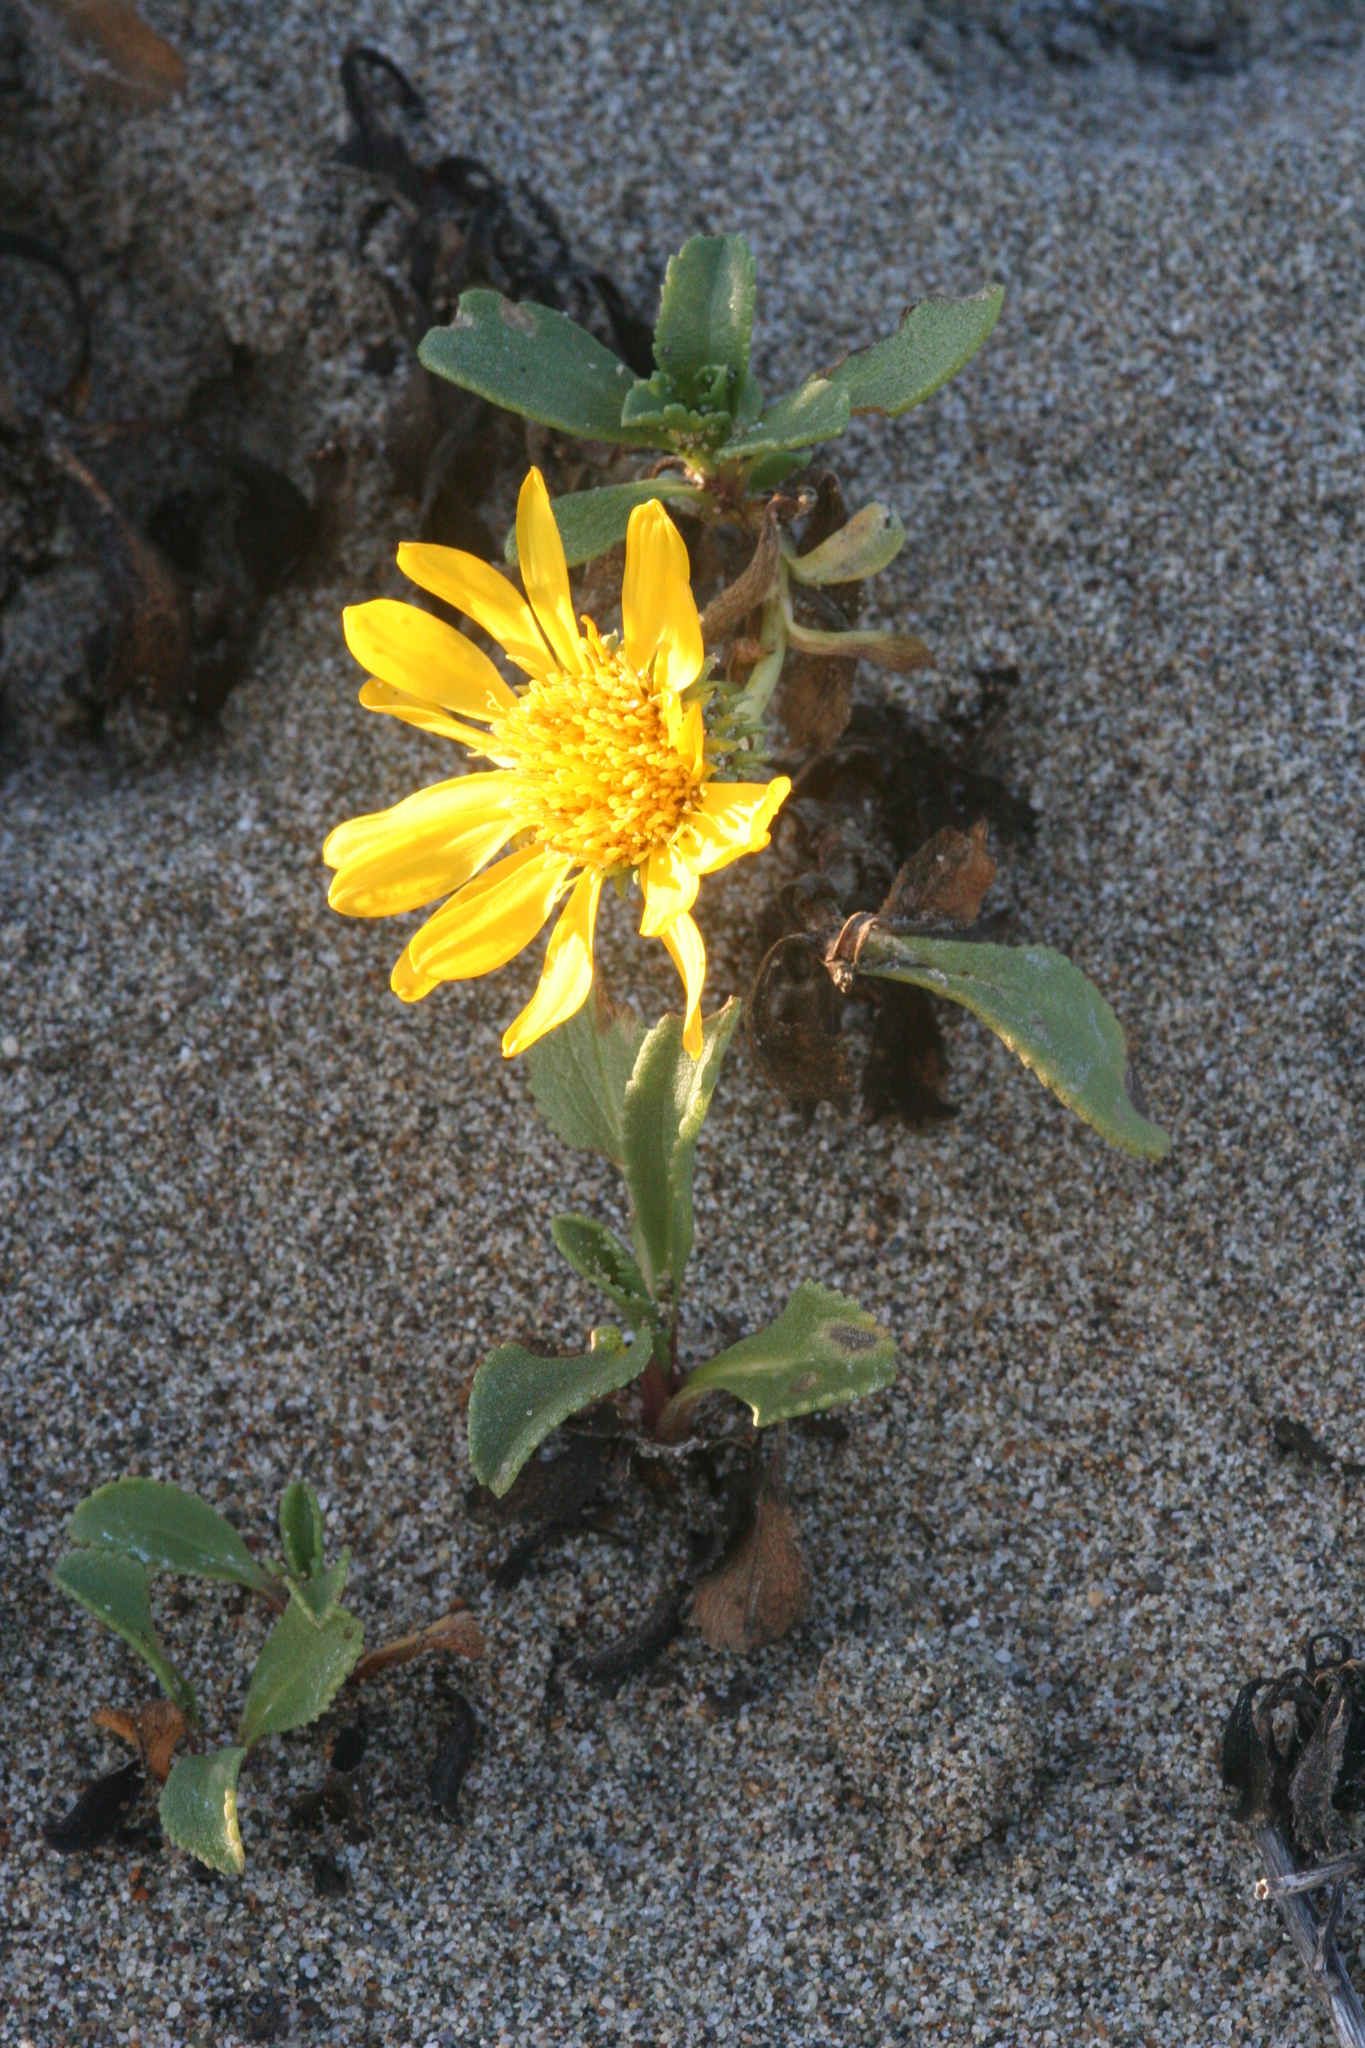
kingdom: Plantae
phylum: Tracheophyta
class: Magnoliopsida
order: Asterales
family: Asteraceae
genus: Grindelia
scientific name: Grindelia hirsutula
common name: Hairy gumweed
